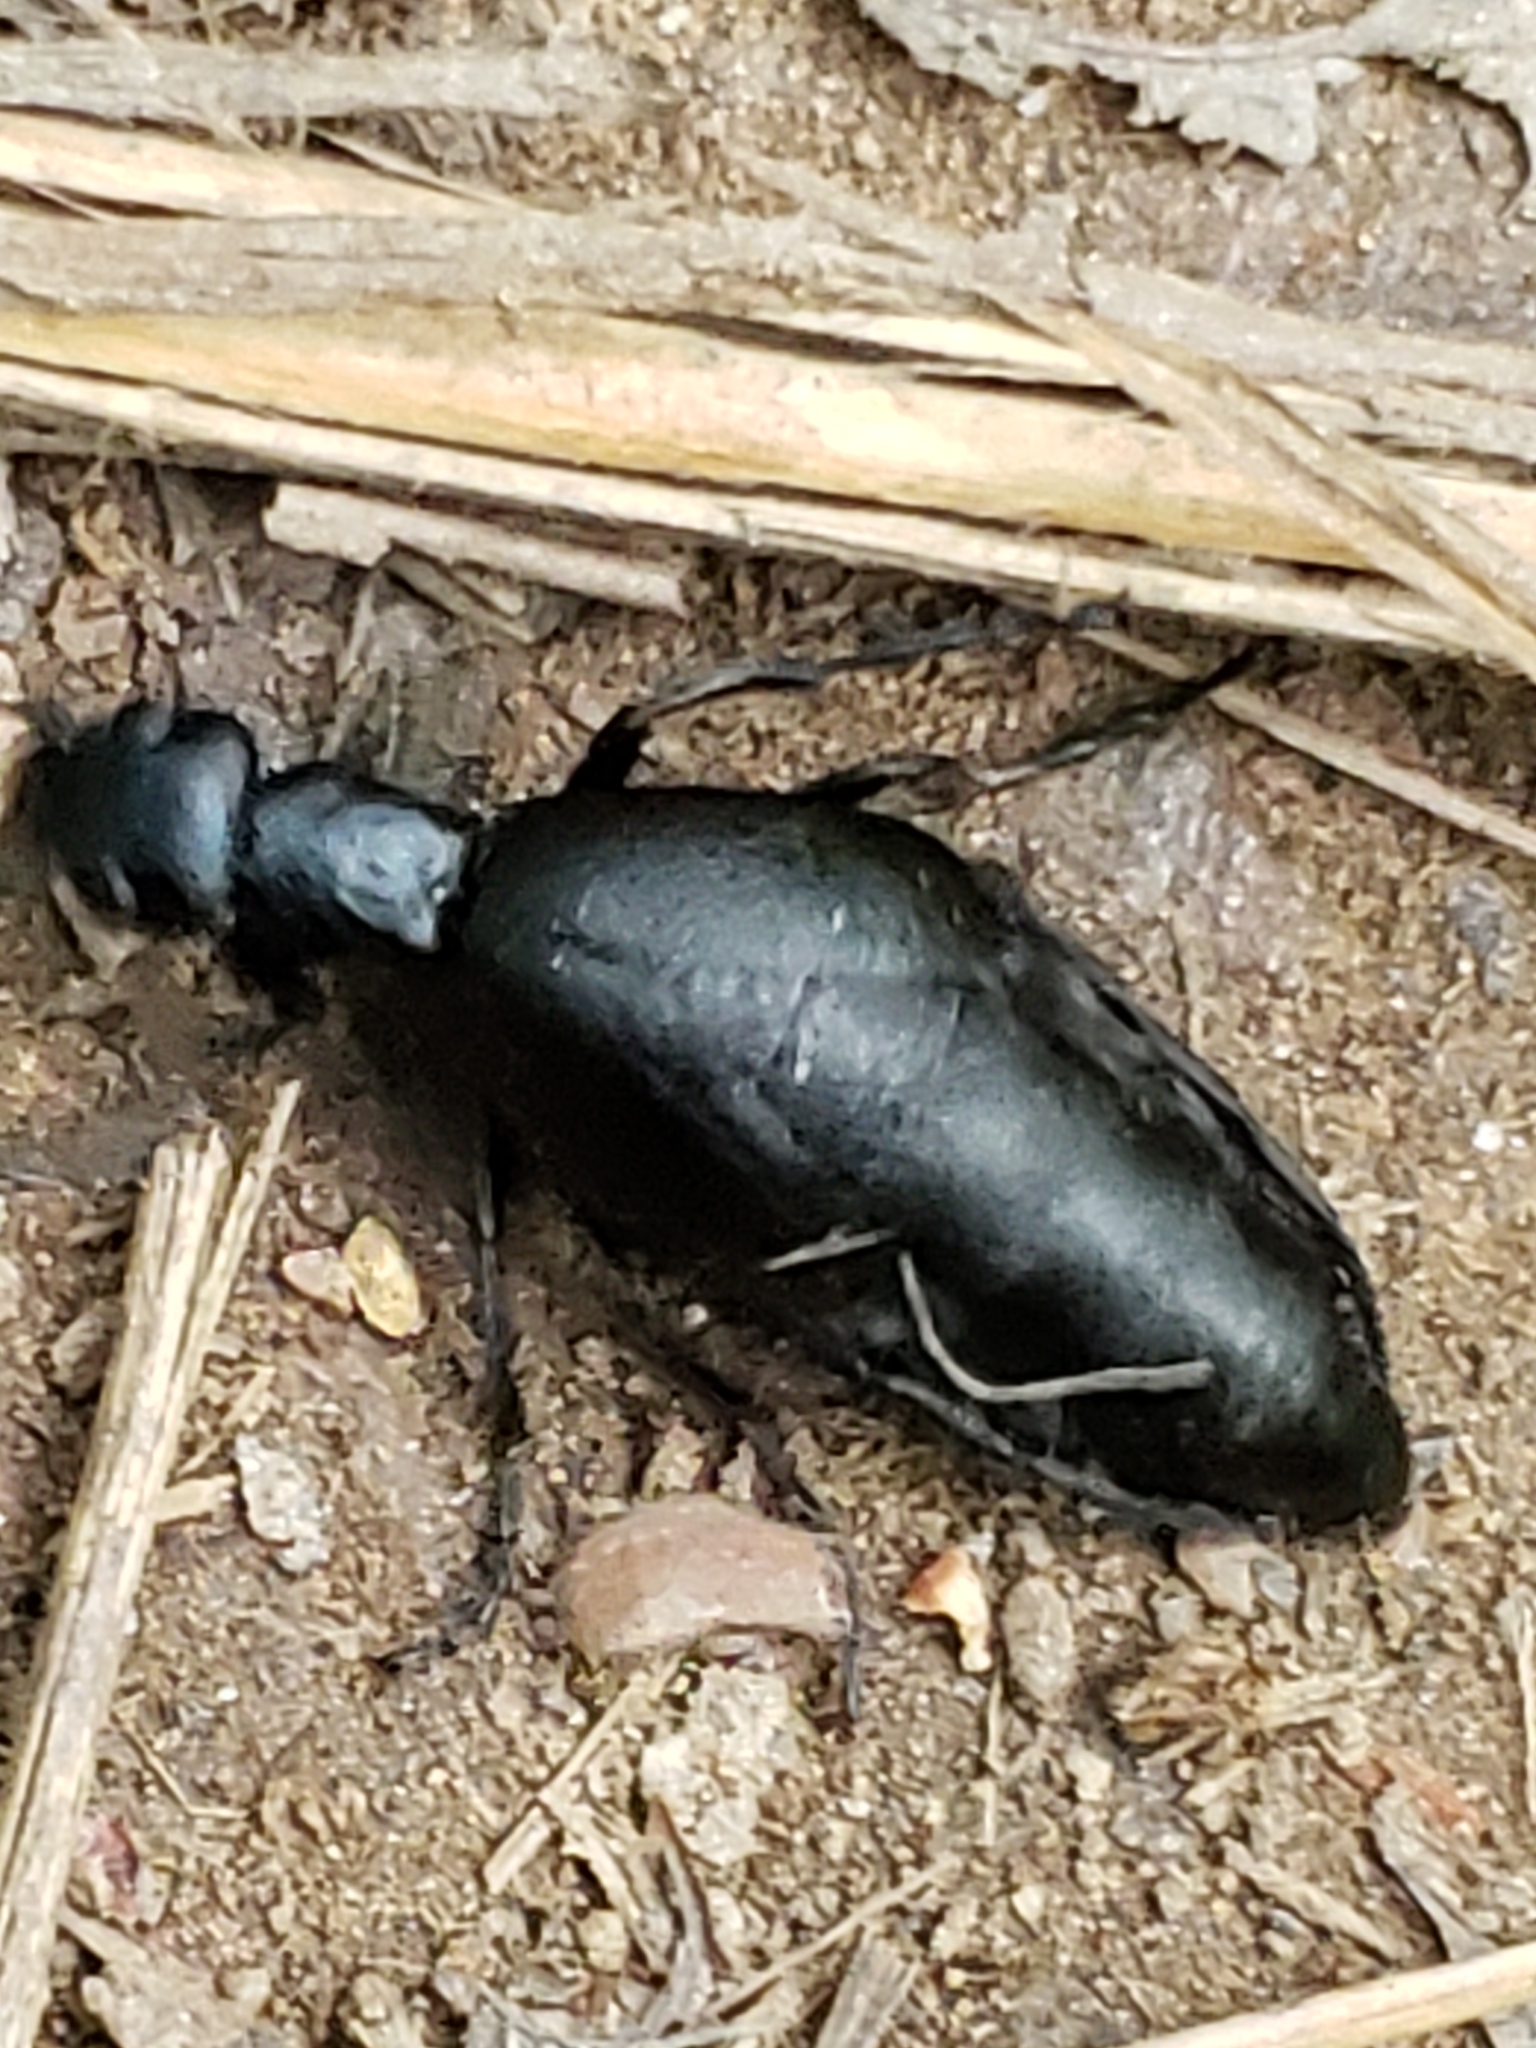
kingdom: Animalia
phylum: Arthropoda
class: Insecta
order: Coleoptera
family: Meloidae
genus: Meloe
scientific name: Meloe americanus
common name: Buttercup oil beetle
